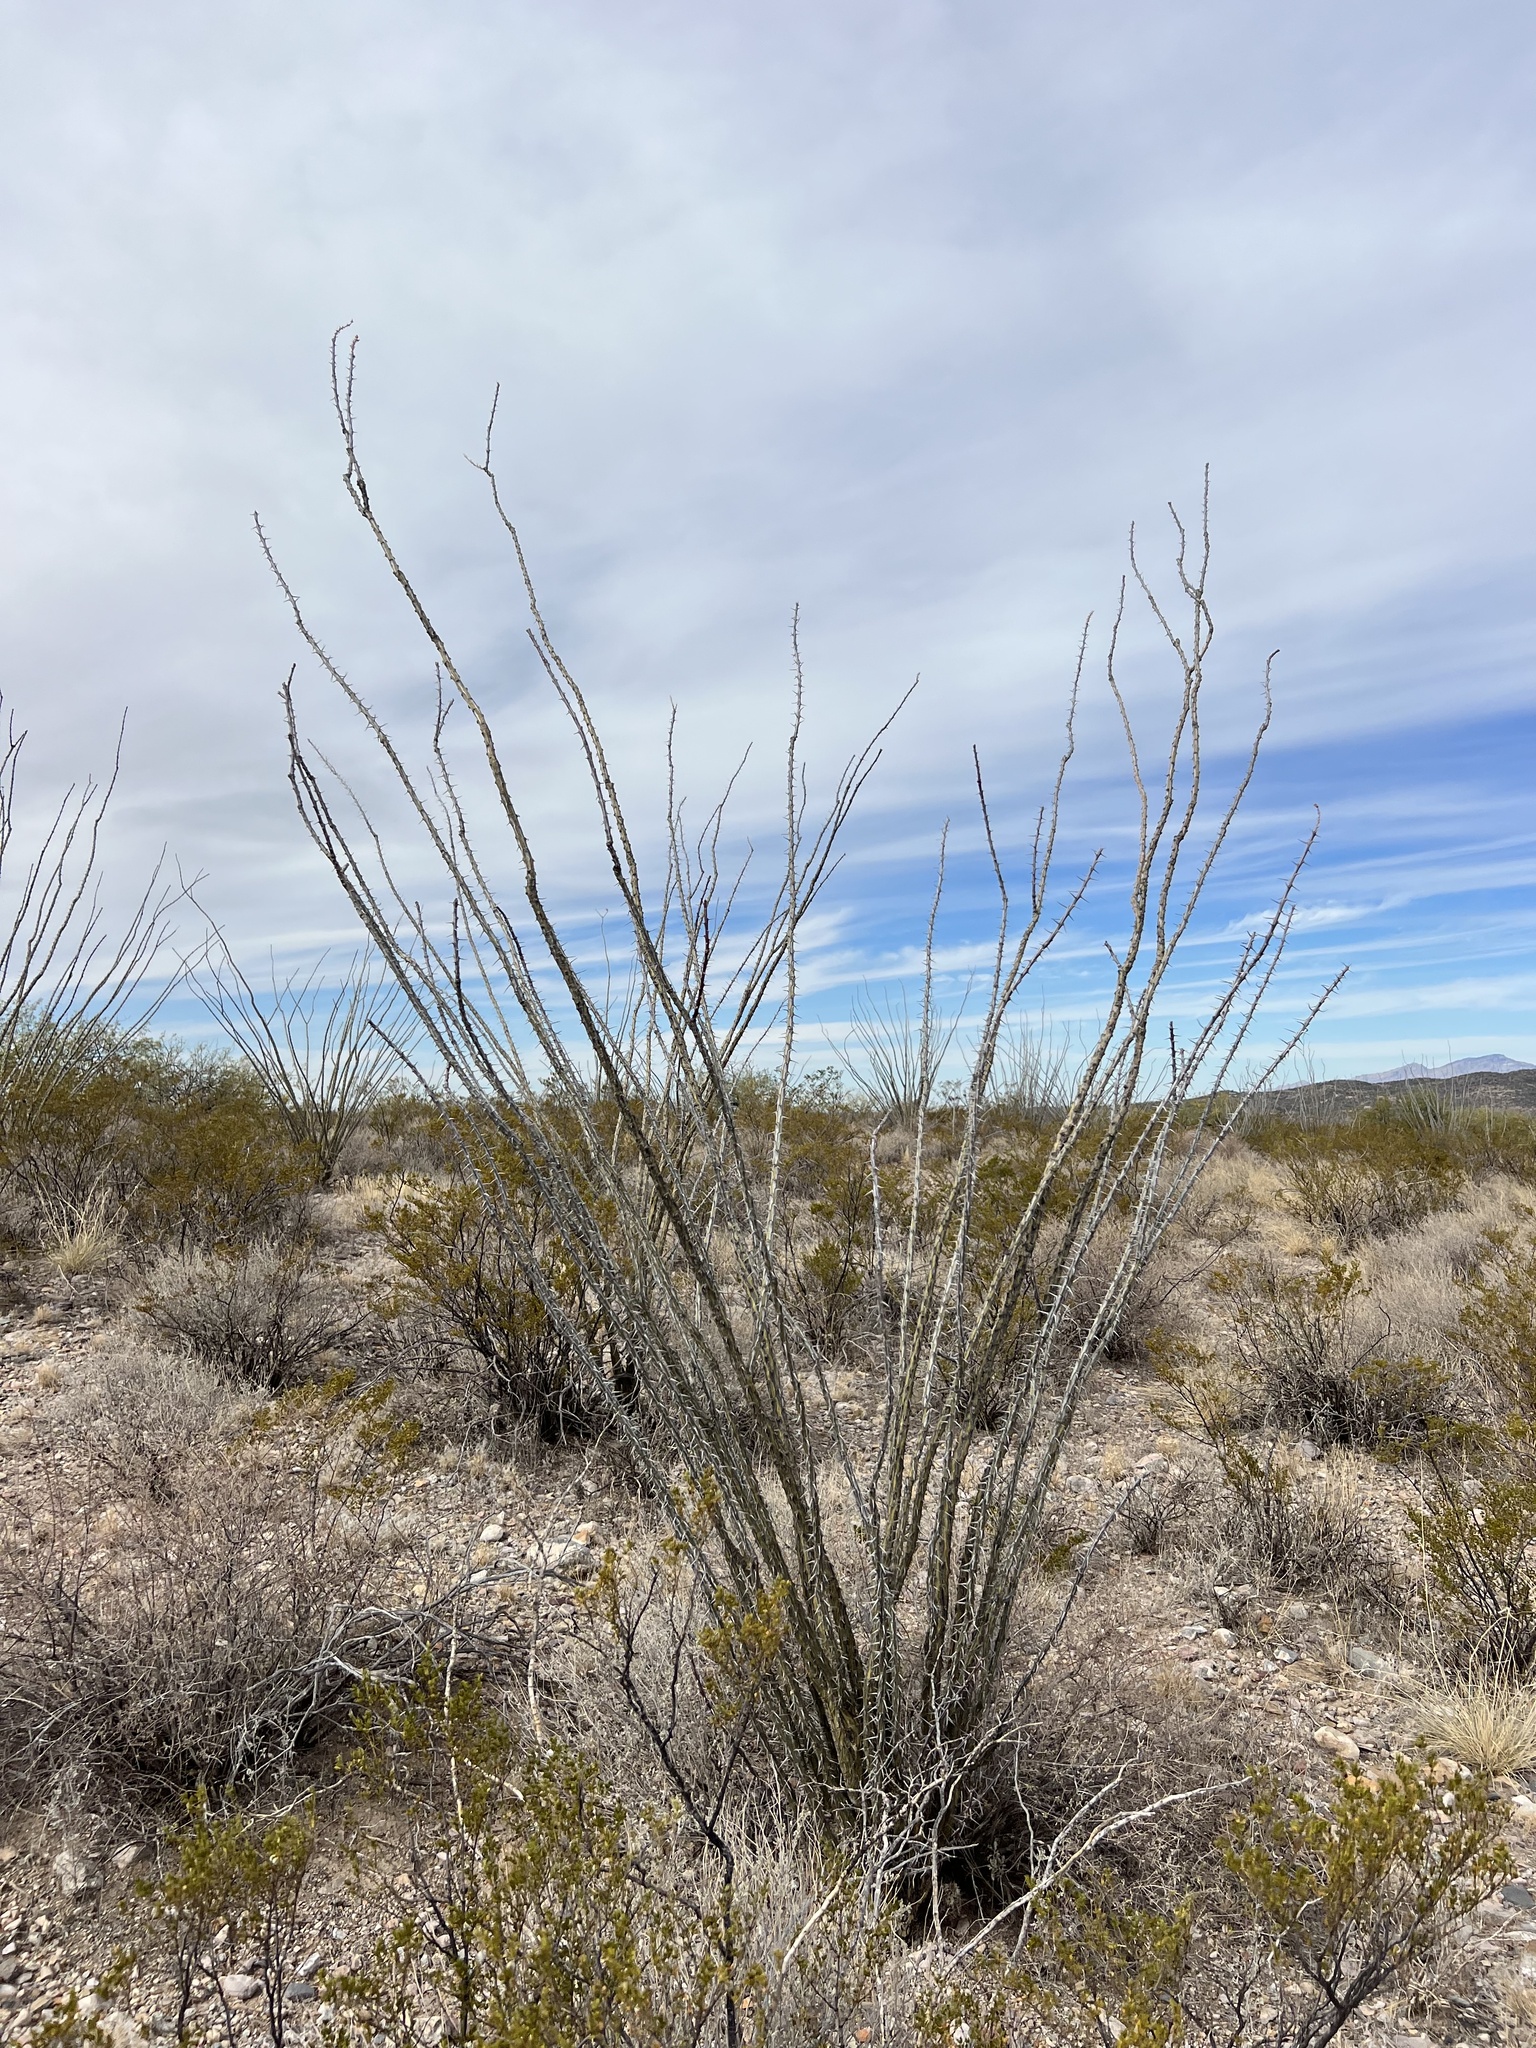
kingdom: Plantae
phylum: Tracheophyta
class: Magnoliopsida
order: Ericales
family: Fouquieriaceae
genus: Fouquieria
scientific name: Fouquieria splendens
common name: Vine-cactus
